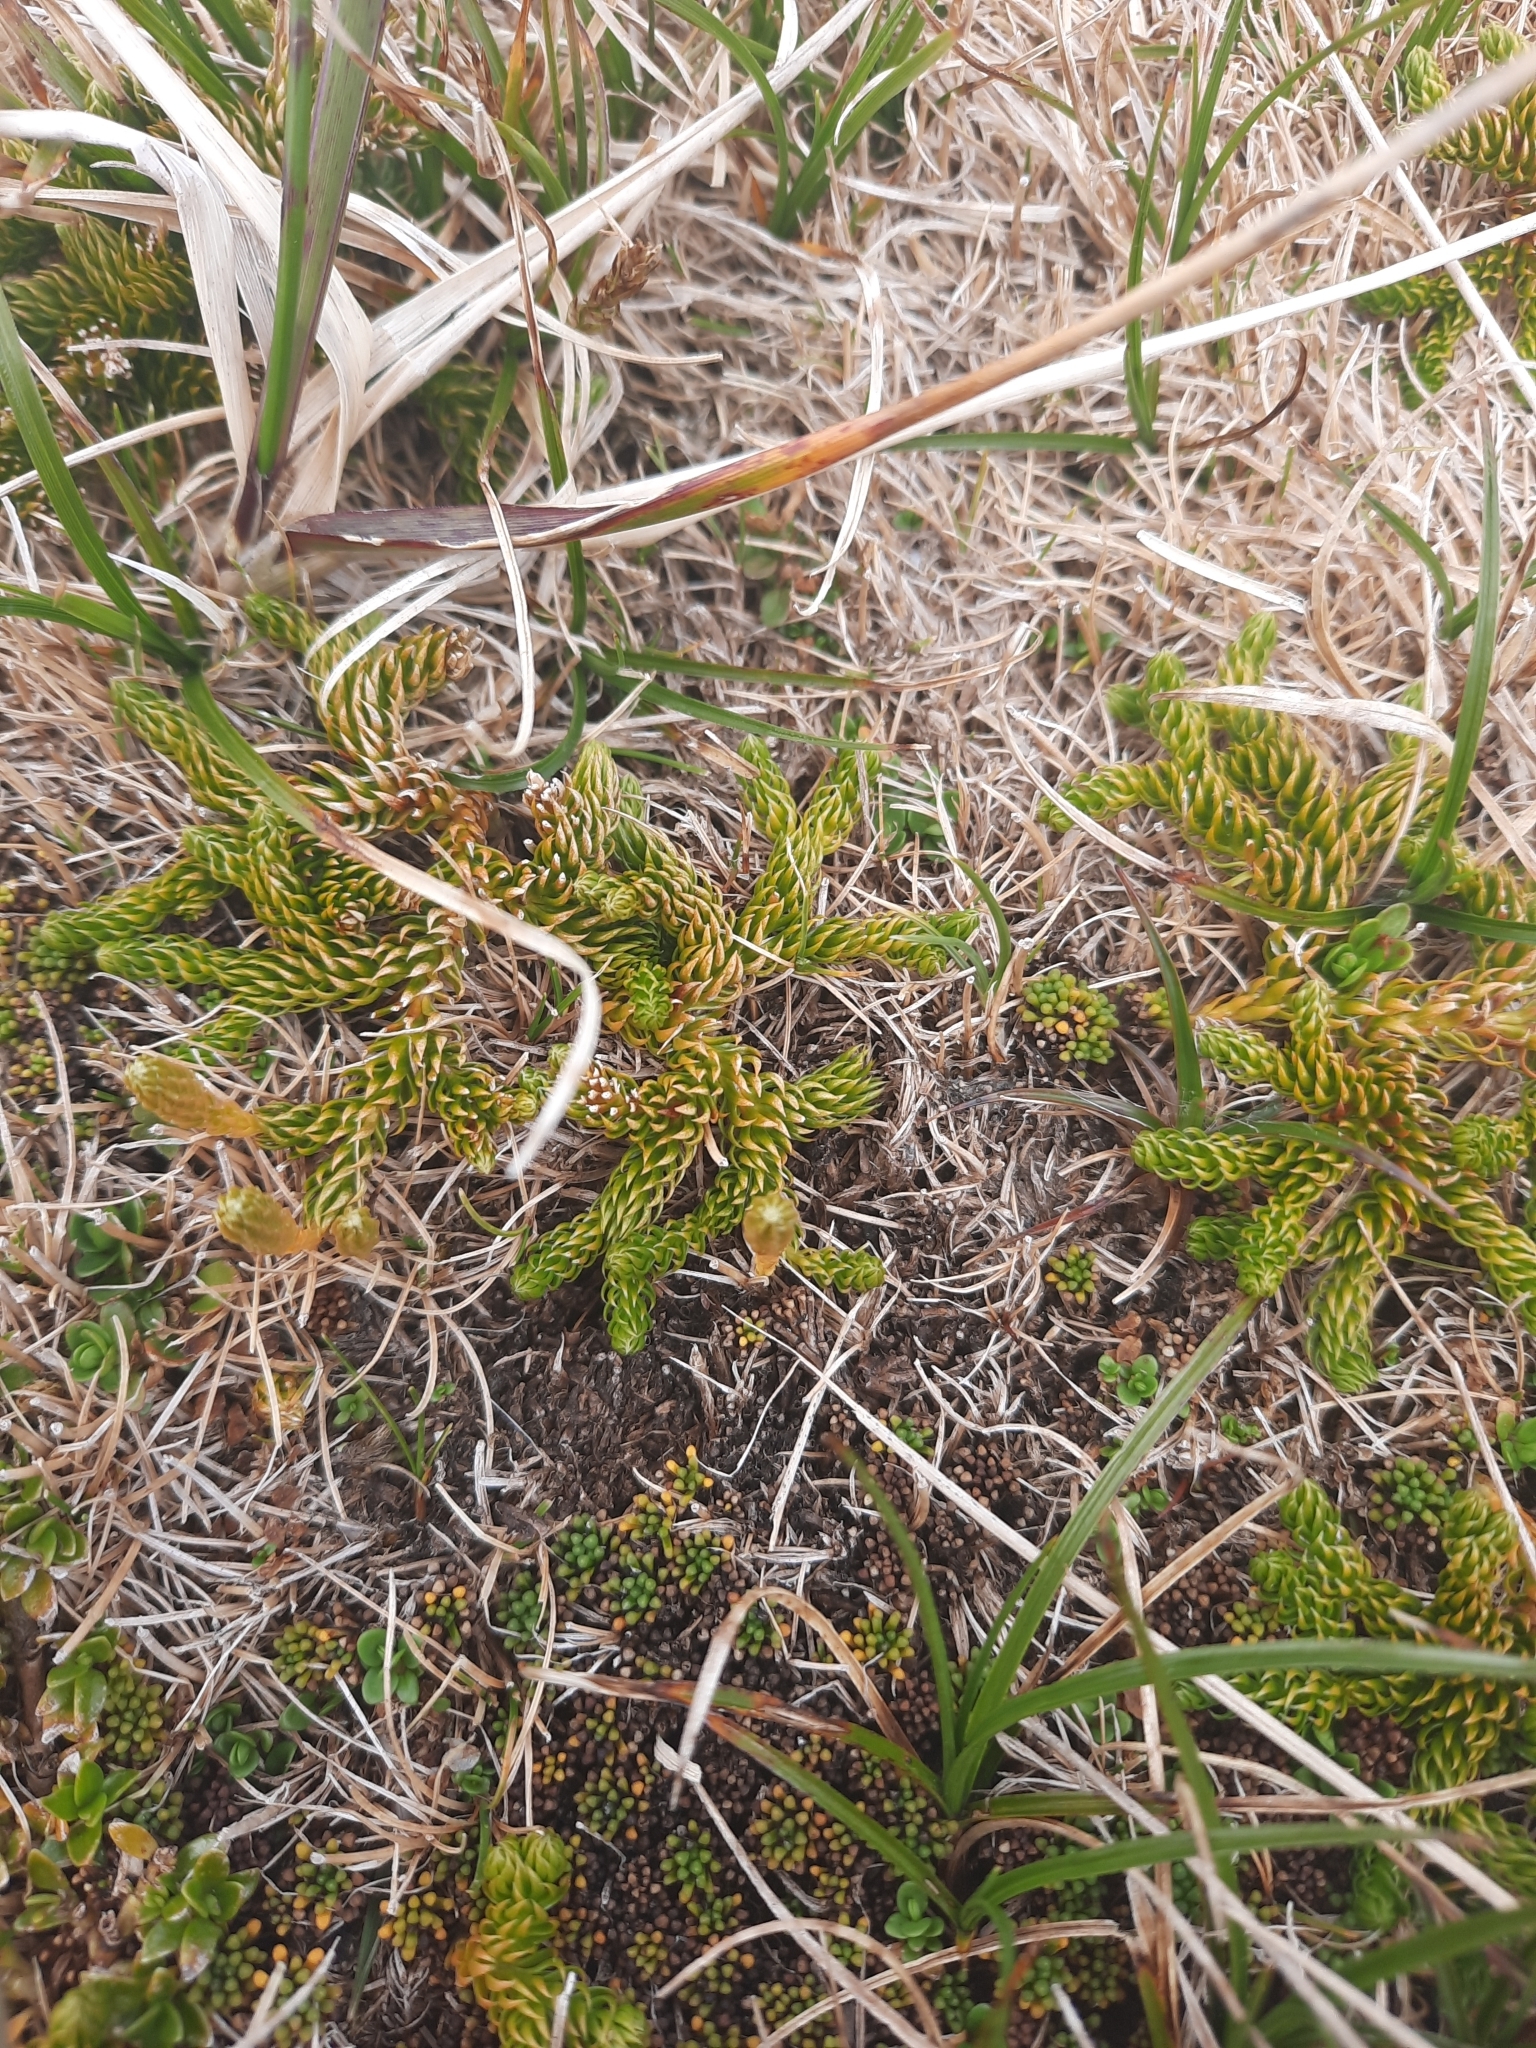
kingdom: Plantae
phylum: Tracheophyta
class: Lycopodiopsida
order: Lycopodiales
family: Lycopodiaceae
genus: Austrolycopodium
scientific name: Austrolycopodium fastigiatum
